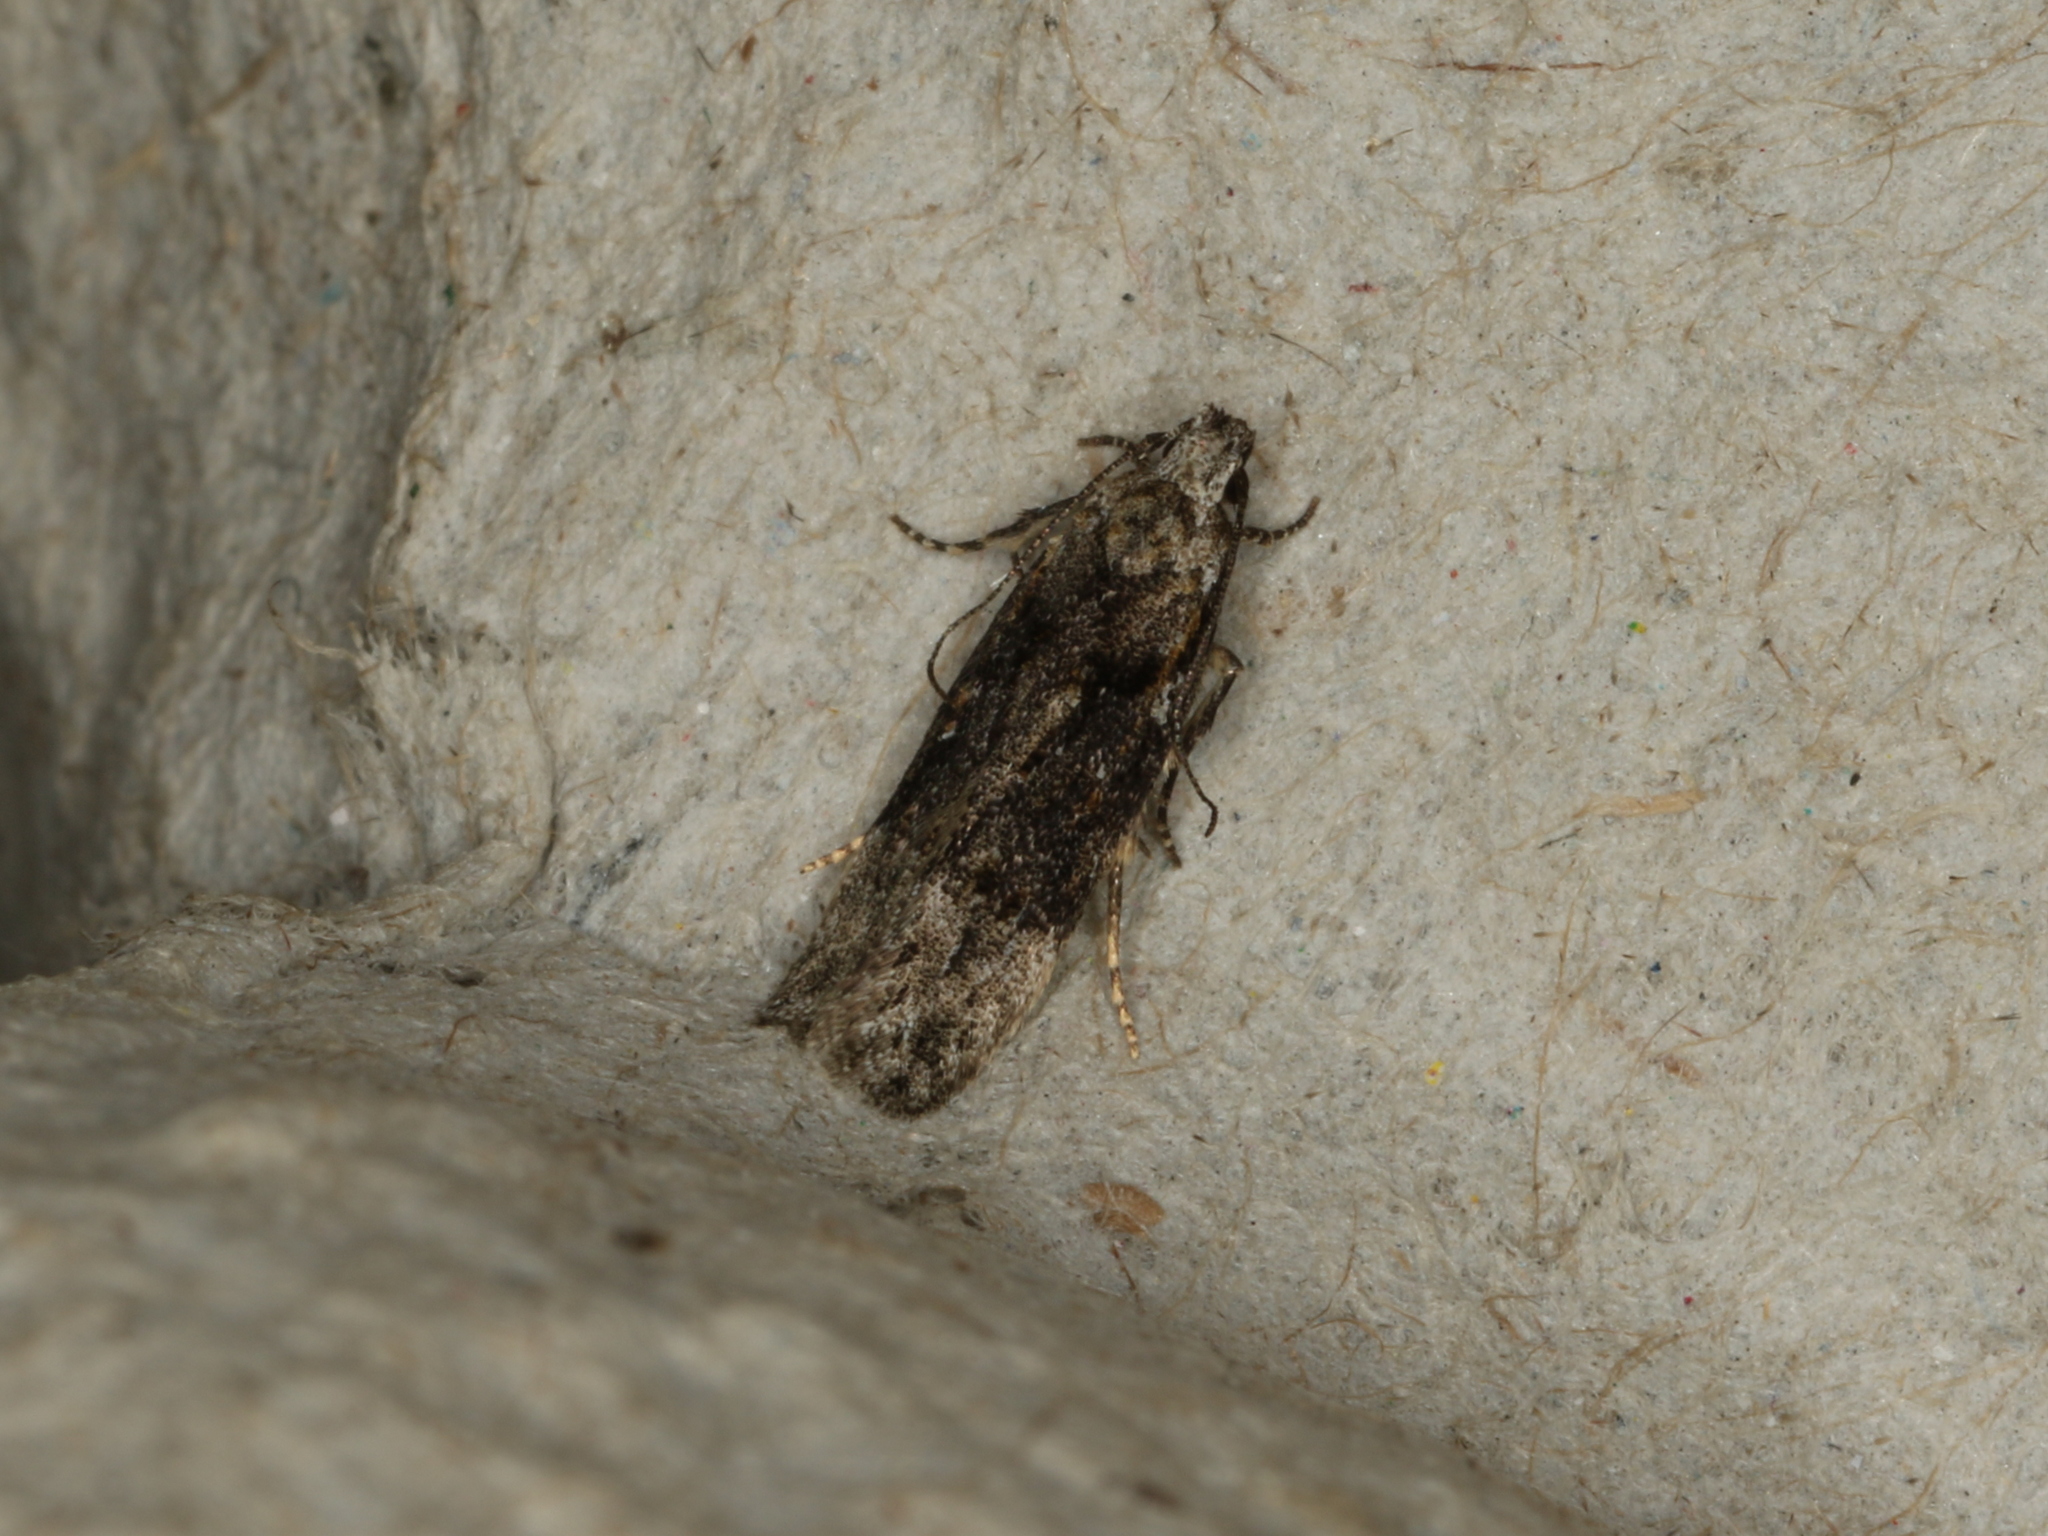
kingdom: Animalia
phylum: Arthropoda
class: Insecta
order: Lepidoptera
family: Gelechiidae
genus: Carpatolechia
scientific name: Carpatolechia fugitivella
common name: Elm groundling
